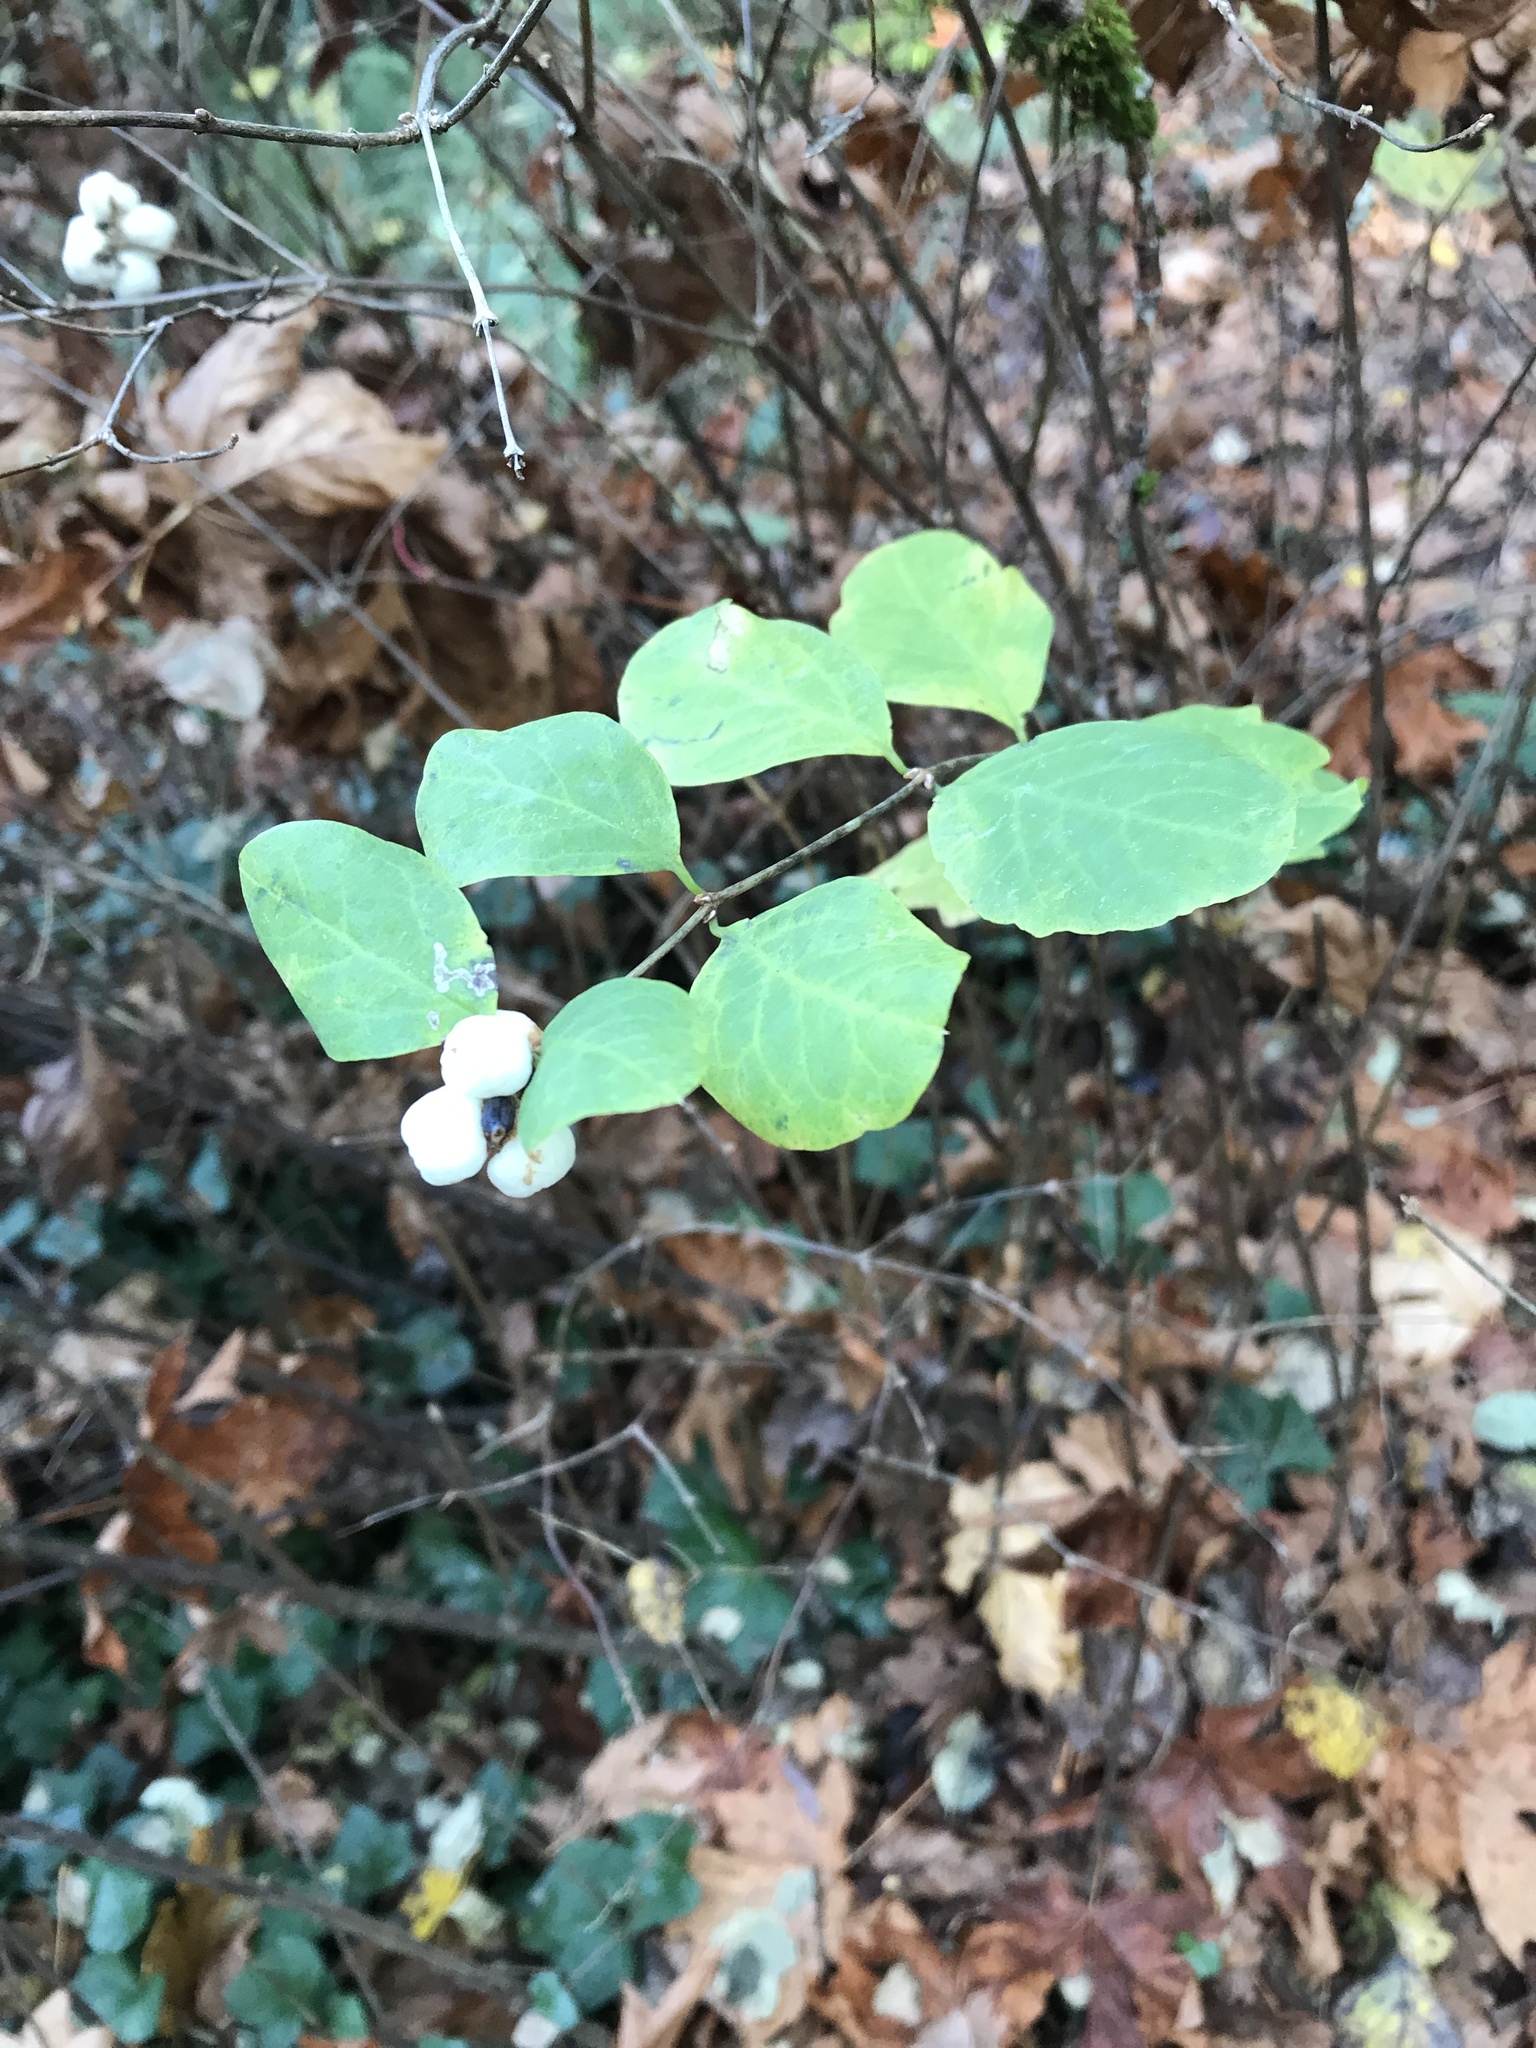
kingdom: Plantae
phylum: Tracheophyta
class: Magnoliopsida
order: Dipsacales
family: Caprifoliaceae
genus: Symphoricarpos
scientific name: Symphoricarpos albus
